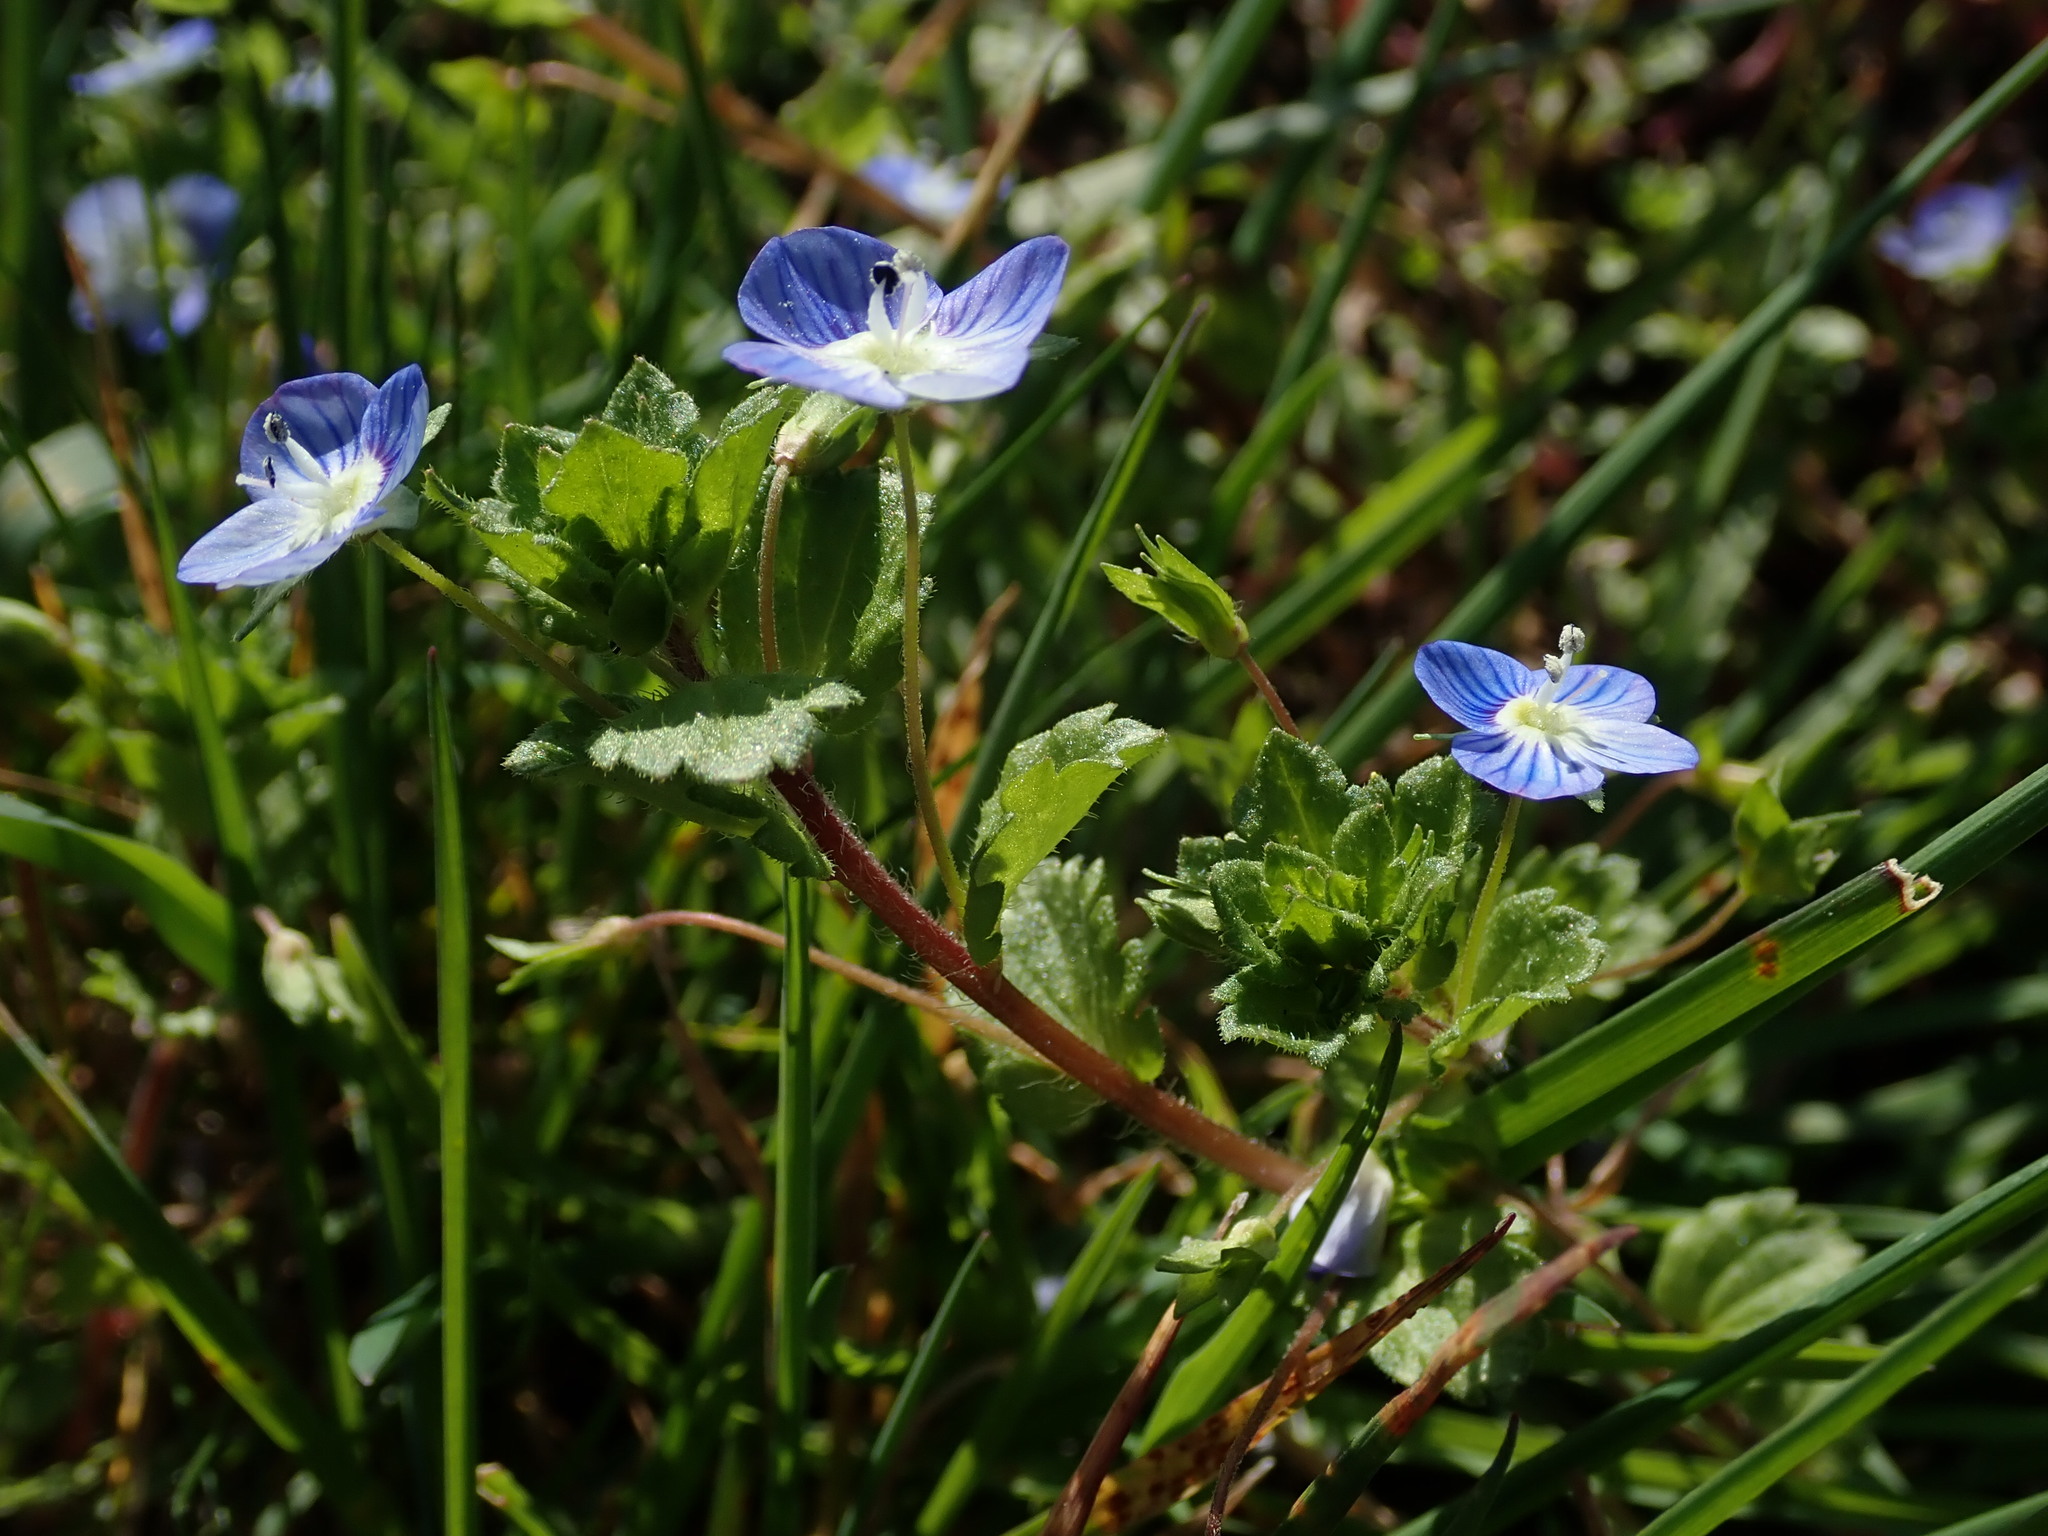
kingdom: Plantae
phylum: Tracheophyta
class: Magnoliopsida
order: Lamiales
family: Plantaginaceae
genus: Veronica
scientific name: Veronica persica
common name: Common field-speedwell
